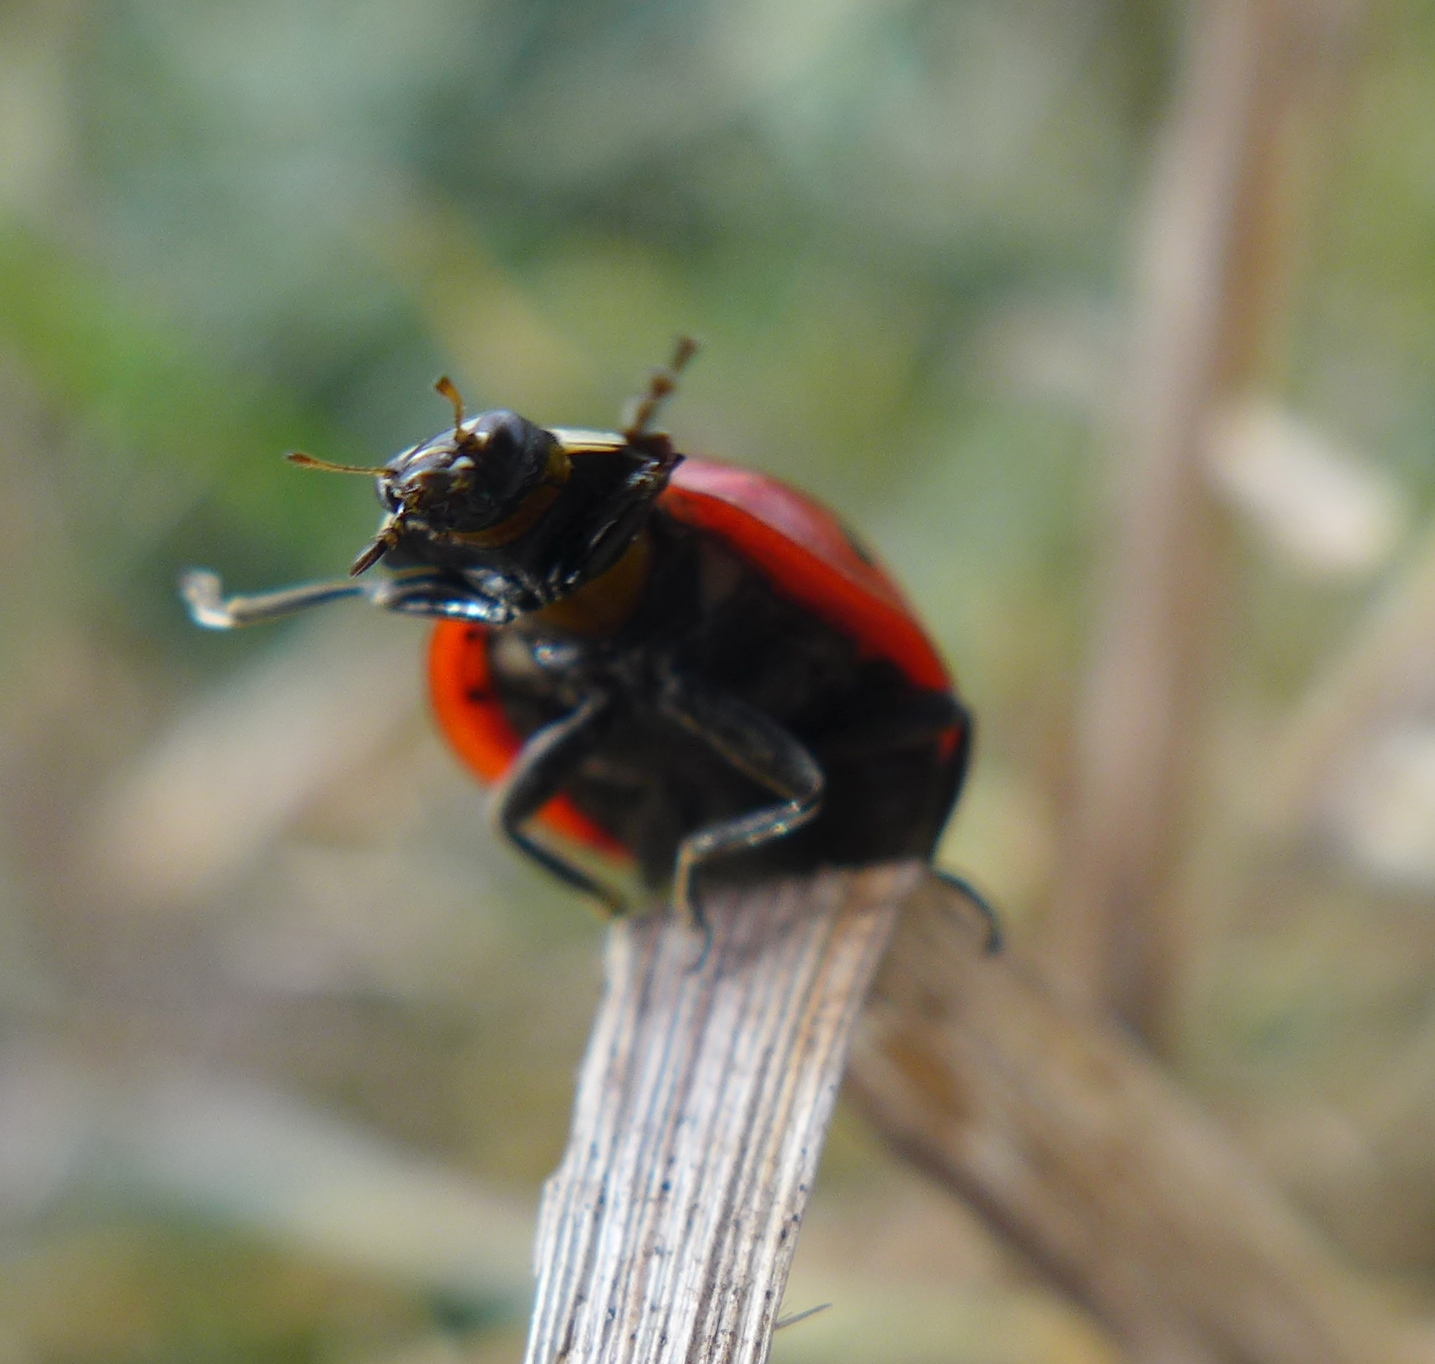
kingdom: Animalia
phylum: Arthropoda
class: Insecta
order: Coleoptera
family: Coccinellidae
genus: Coccinella
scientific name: Coccinella septempunctata
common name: Sevenspotted lady beetle
